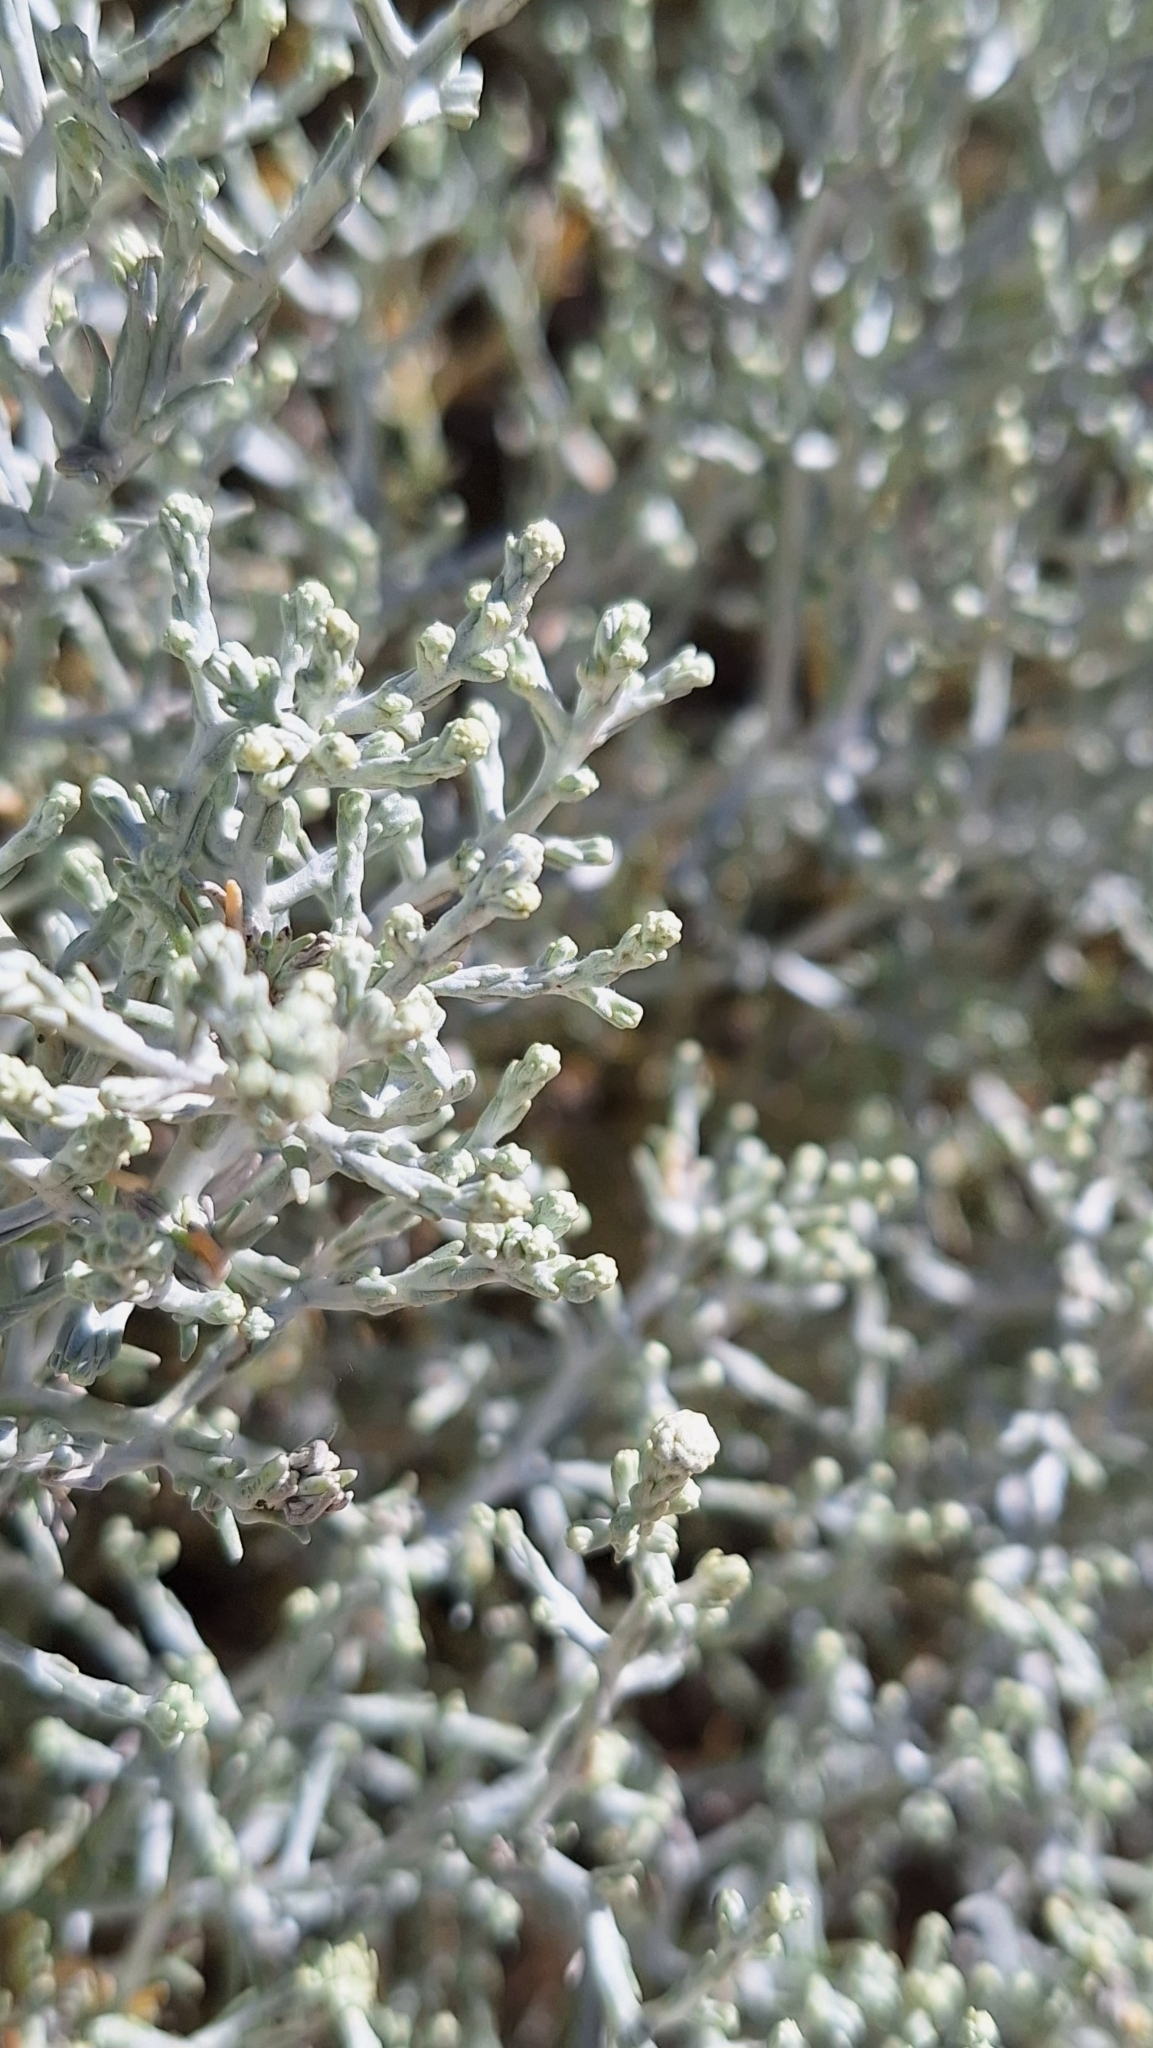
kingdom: Plantae
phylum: Tracheophyta
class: Magnoliopsida
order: Asterales
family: Asteraceae
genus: Calocephalus
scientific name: Calocephalus brownii
